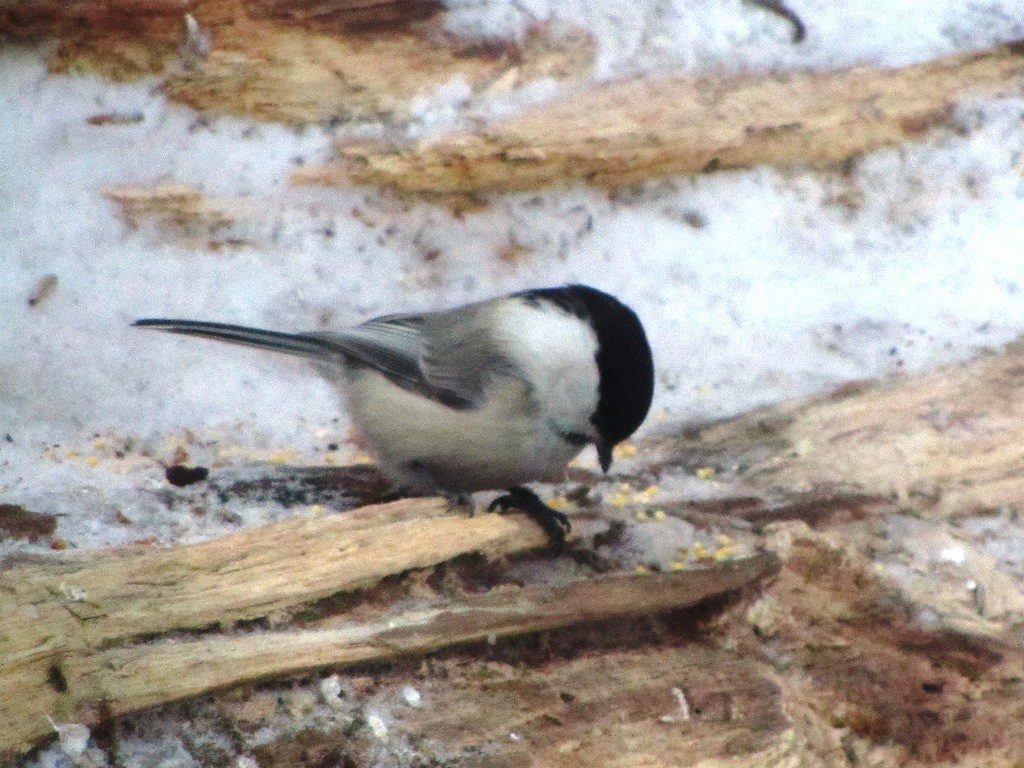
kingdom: Animalia
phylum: Chordata
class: Aves
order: Passeriformes
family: Paridae
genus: Poecile
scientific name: Poecile montanus
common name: Willow tit
